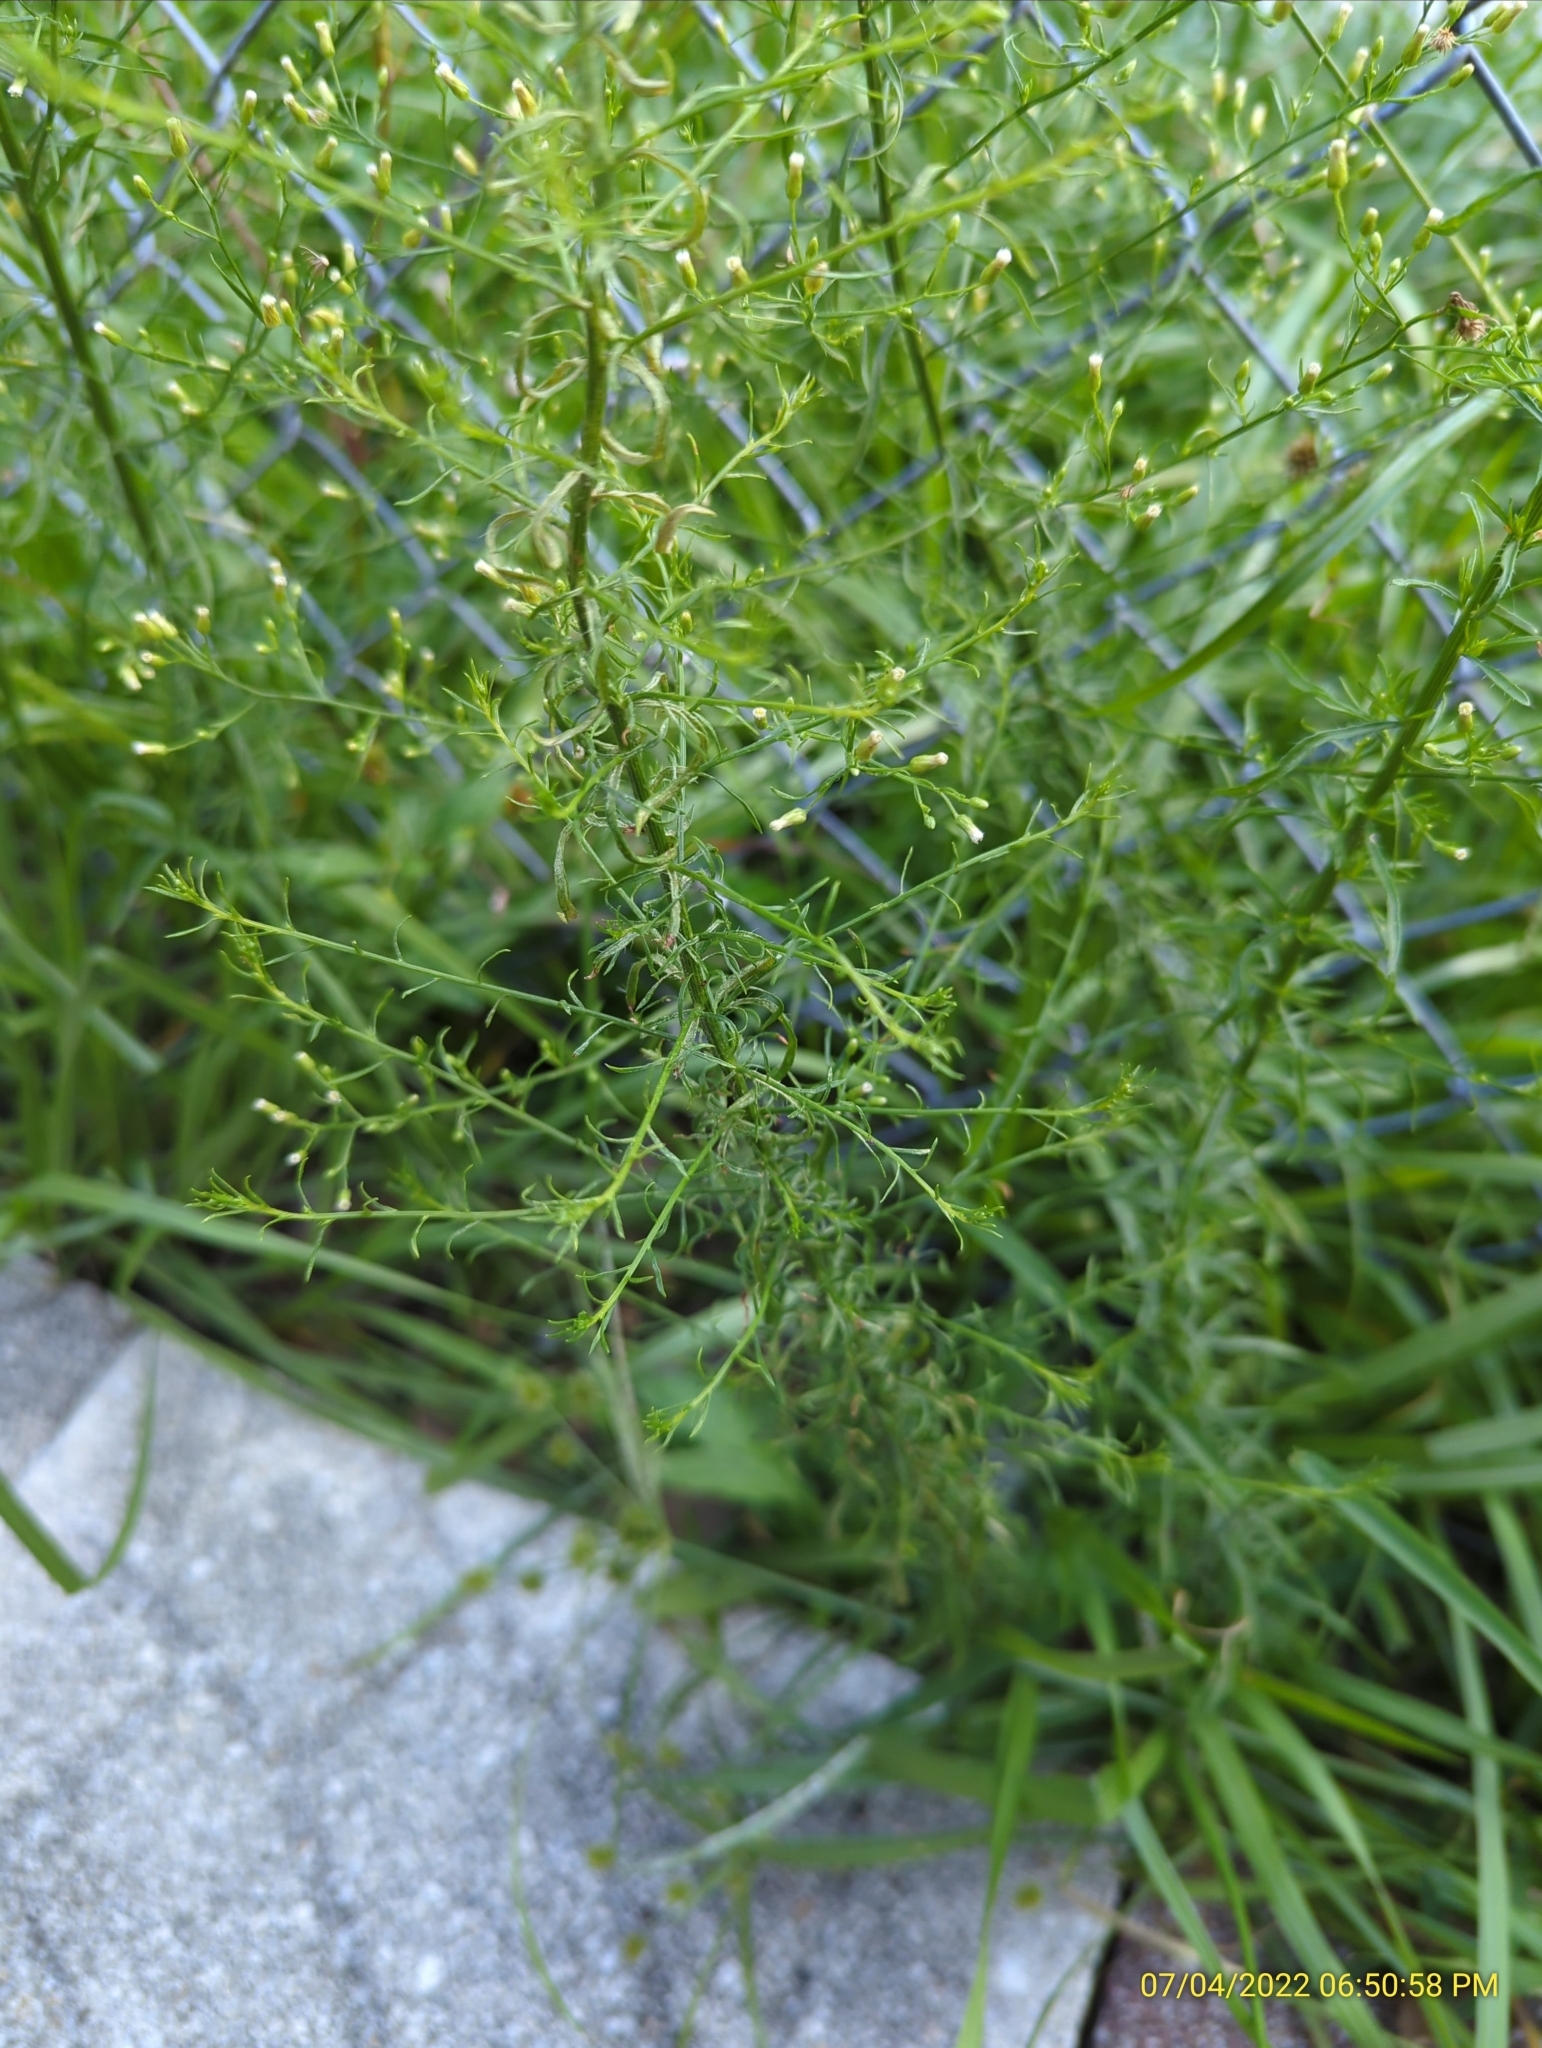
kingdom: Plantae
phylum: Tracheophyta
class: Magnoliopsida
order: Asterales
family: Asteraceae
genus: Erigeron
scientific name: Erigeron canadensis
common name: Canadian fleabane
